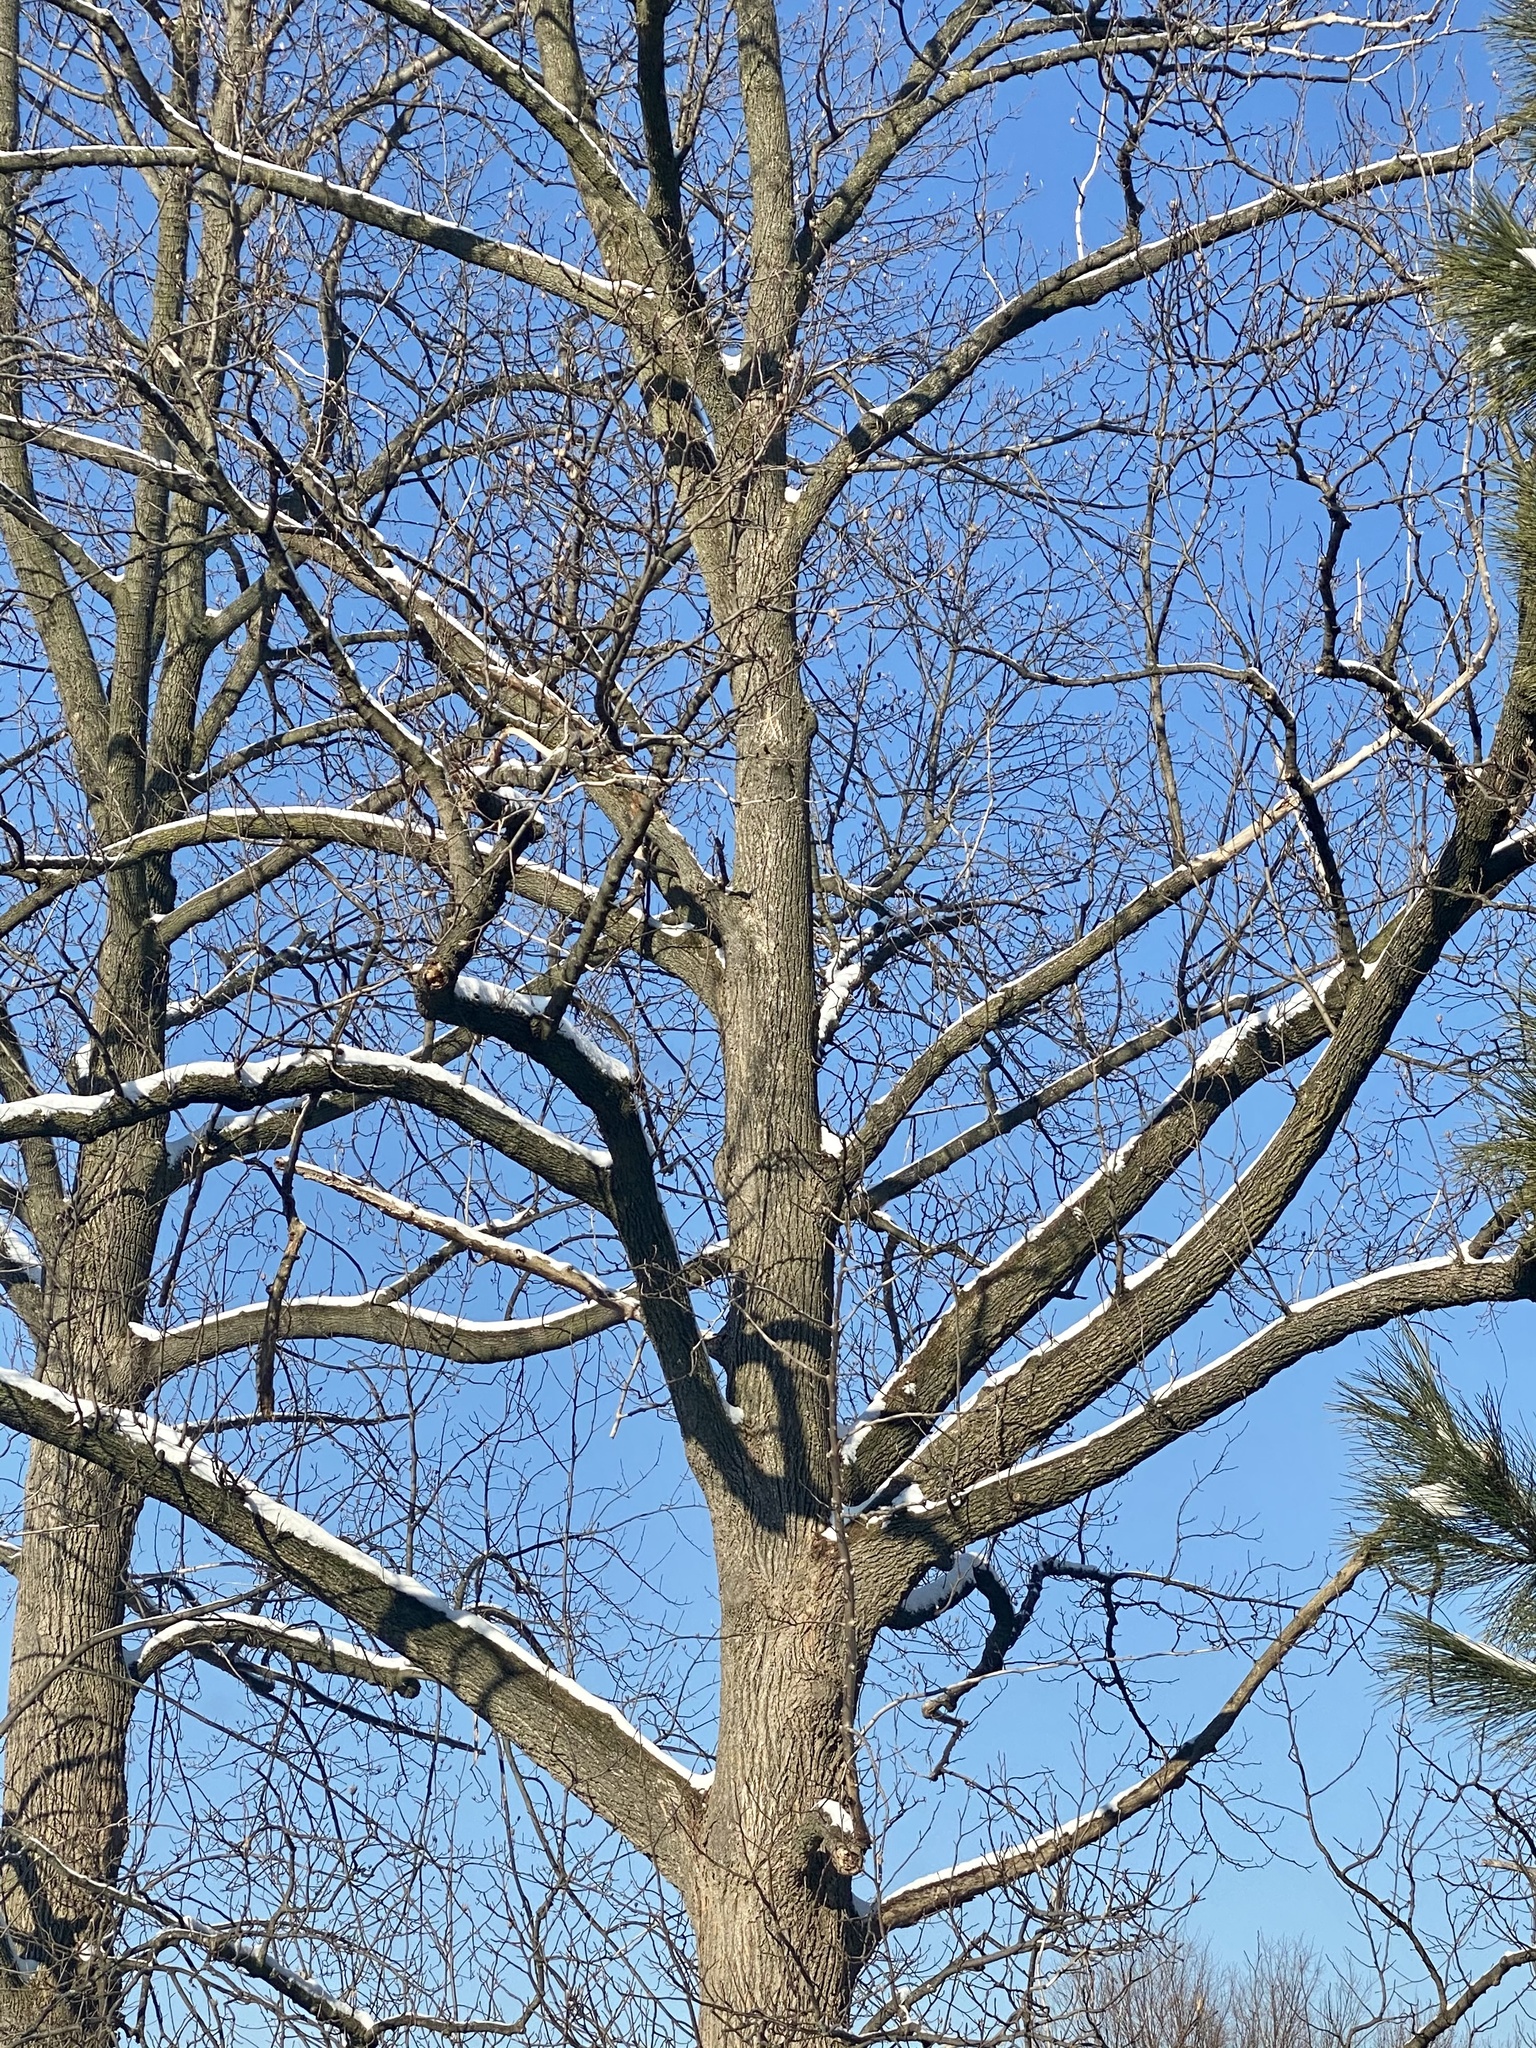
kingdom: Animalia
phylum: Chordata
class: Aves
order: Passeriformes
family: Corvidae
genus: Cyanocitta
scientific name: Cyanocitta cristata
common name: Blue jay
